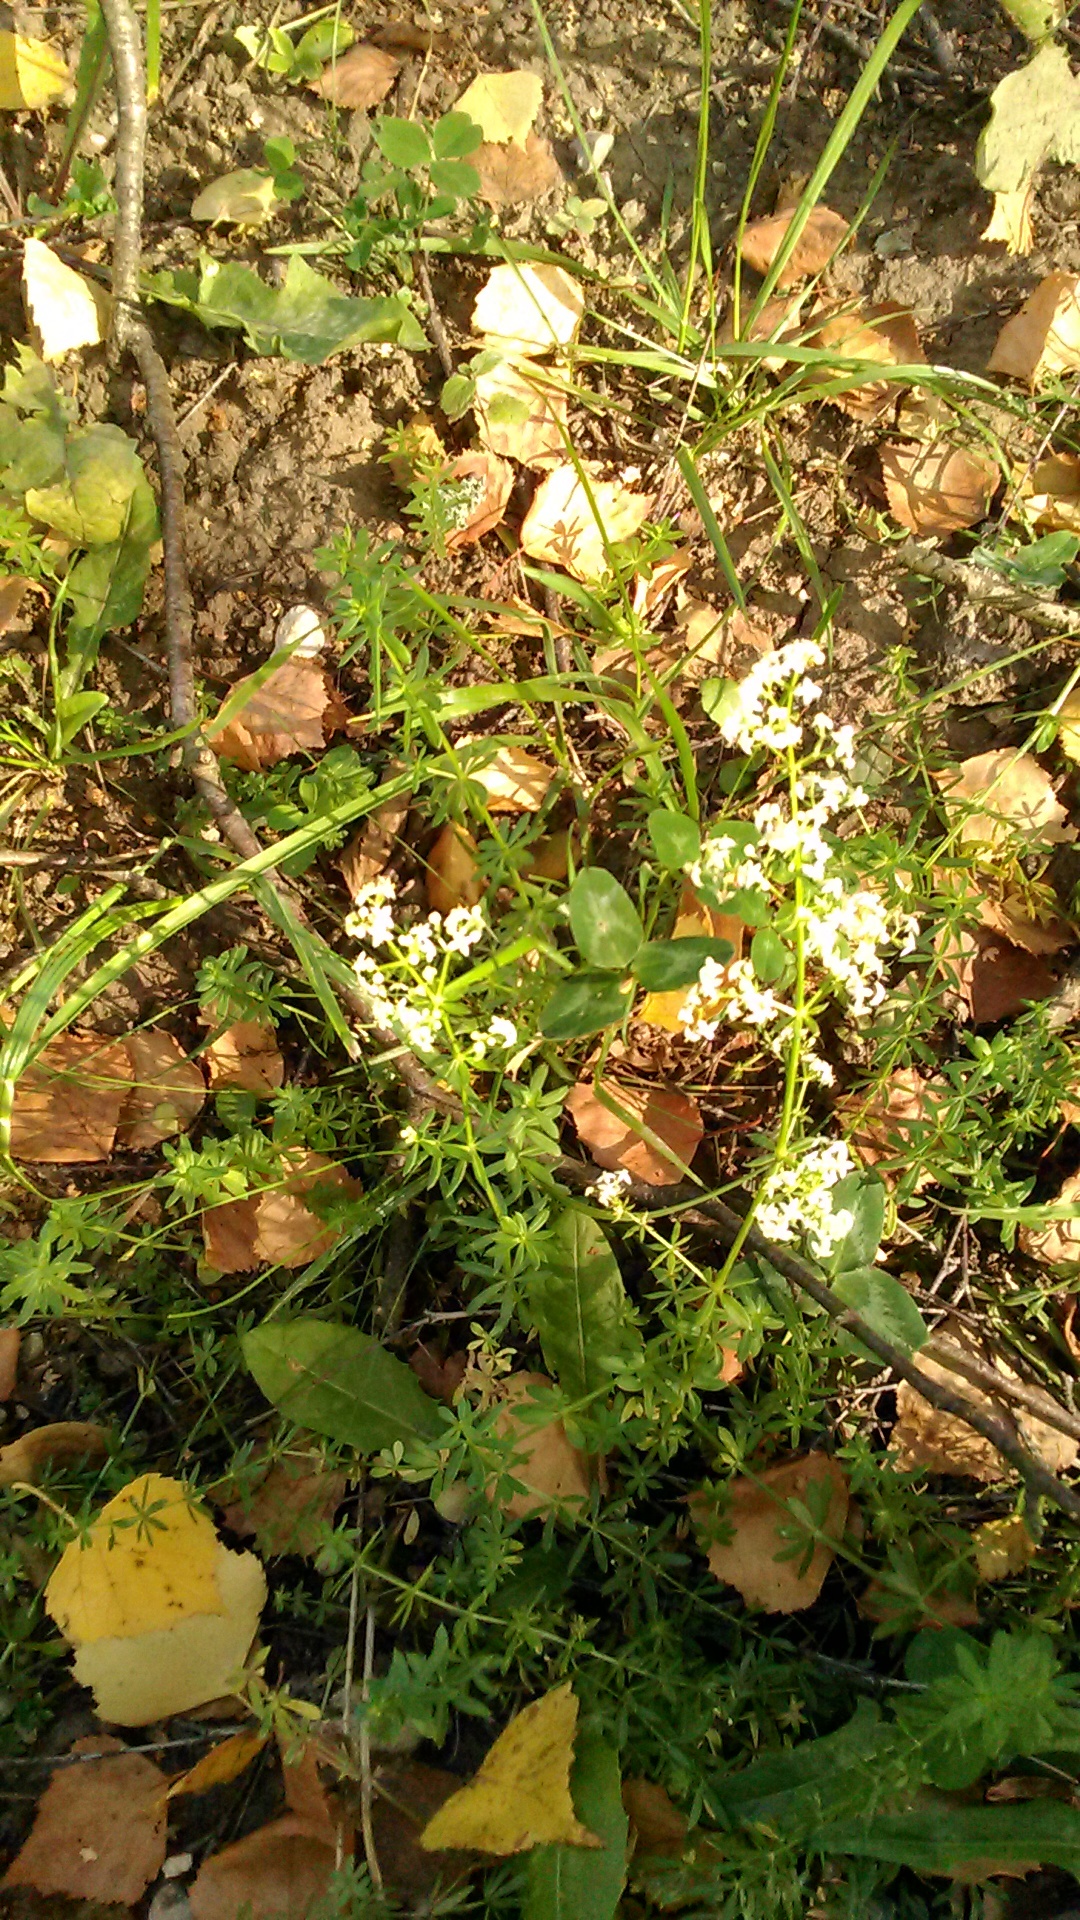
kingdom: Plantae
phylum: Tracheophyta
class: Magnoliopsida
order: Gentianales
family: Rubiaceae
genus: Galium
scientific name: Galium mollugo
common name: Hedge bedstraw
